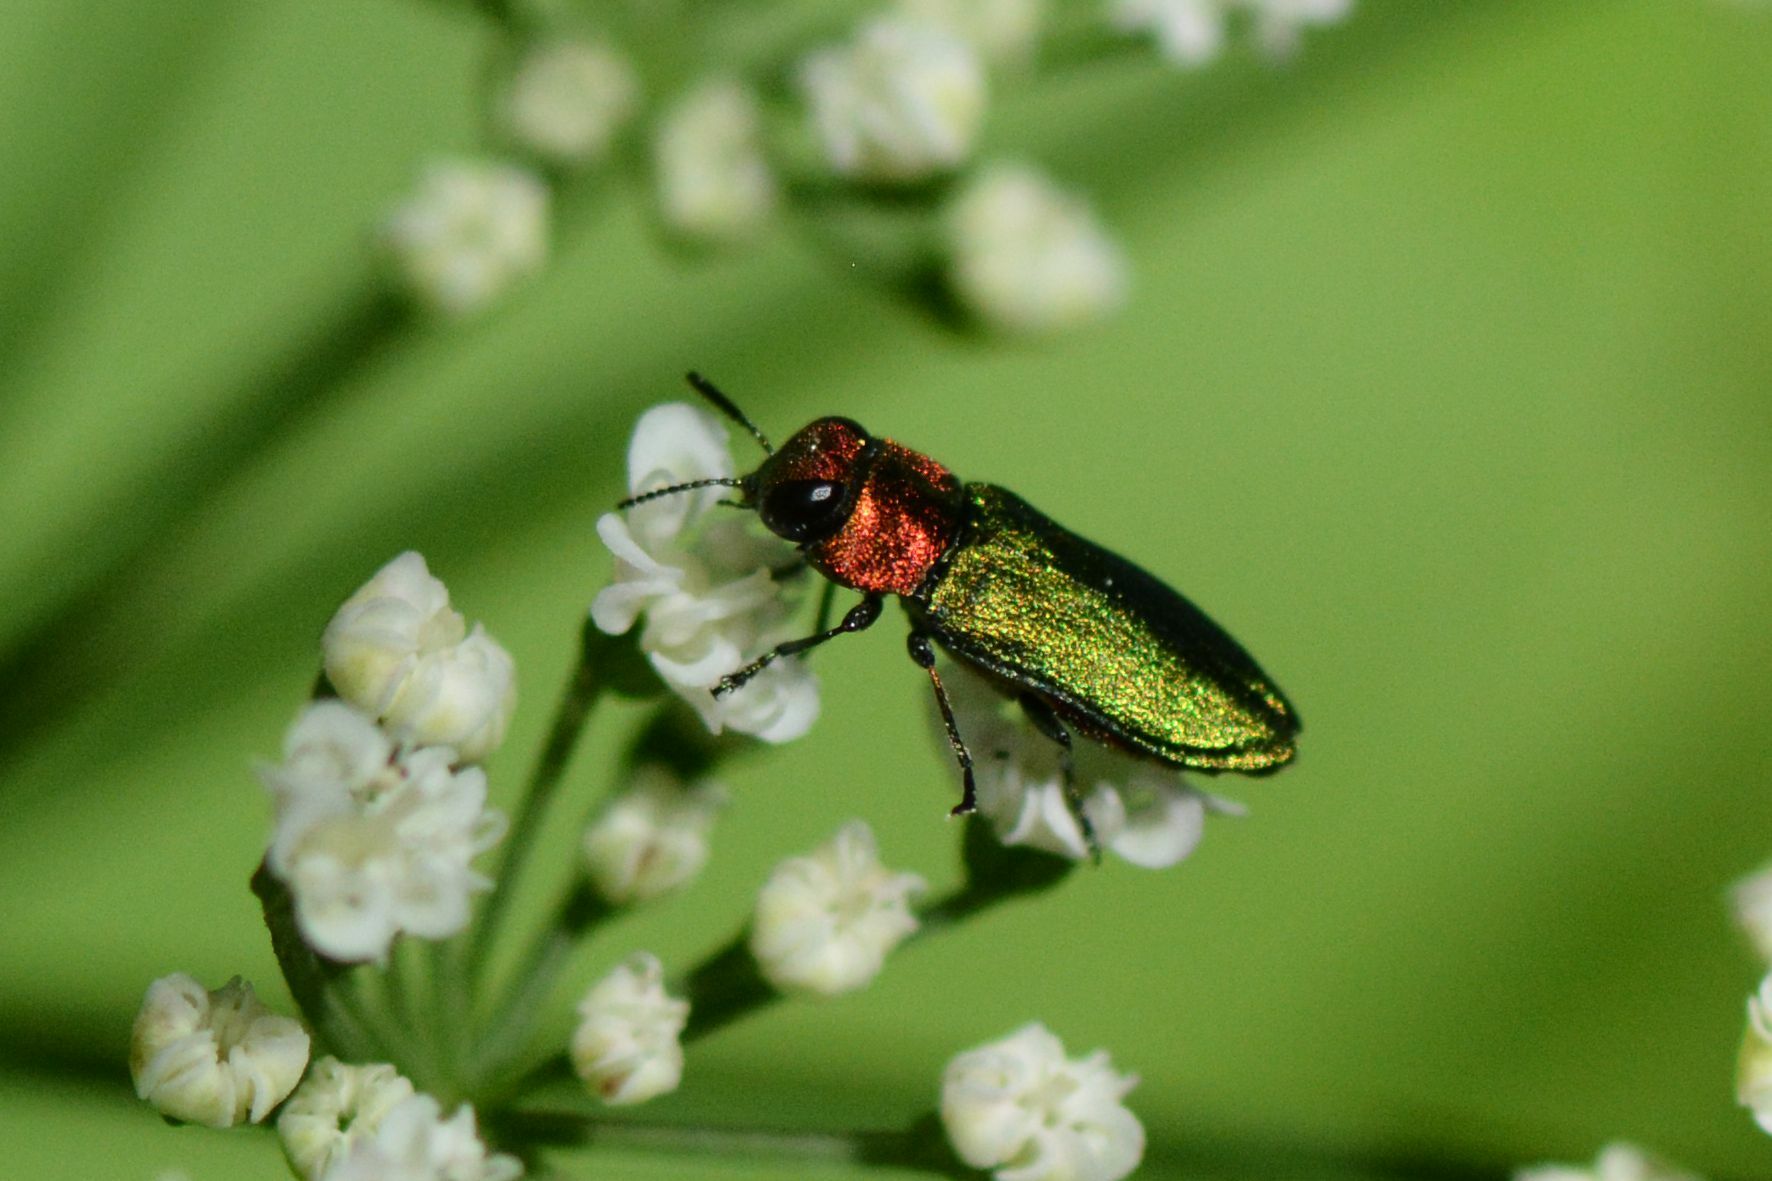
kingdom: Animalia
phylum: Arthropoda
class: Insecta
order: Coleoptera
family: Buprestidae
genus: Anthaxia
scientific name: Anthaxia nitidula
